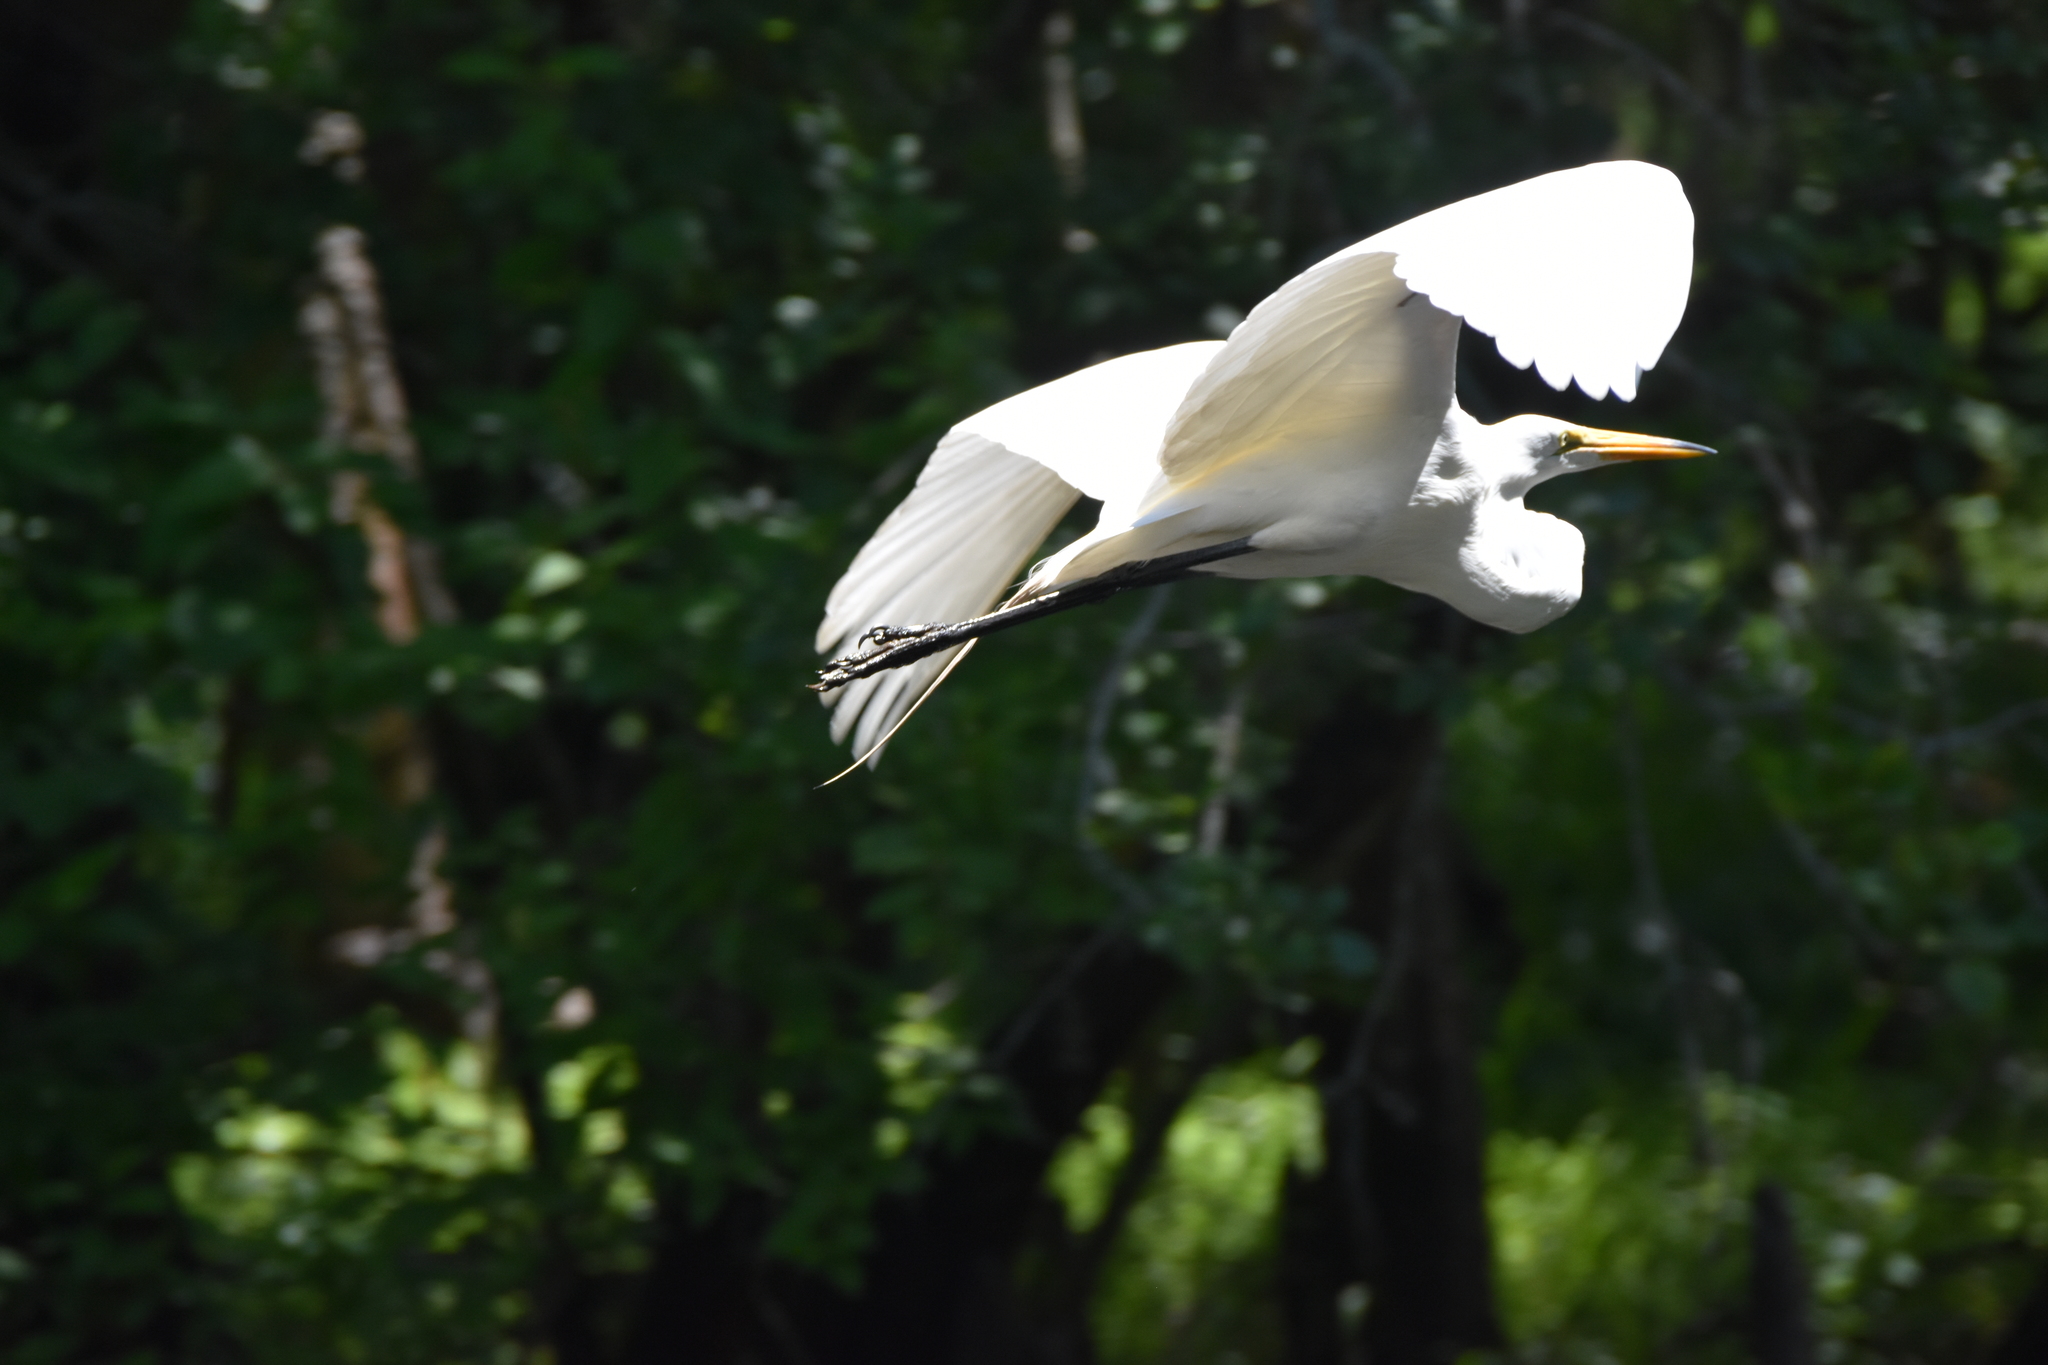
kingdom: Animalia
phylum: Chordata
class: Aves
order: Pelecaniformes
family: Ardeidae
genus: Ardea
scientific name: Ardea alba
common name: Great egret
